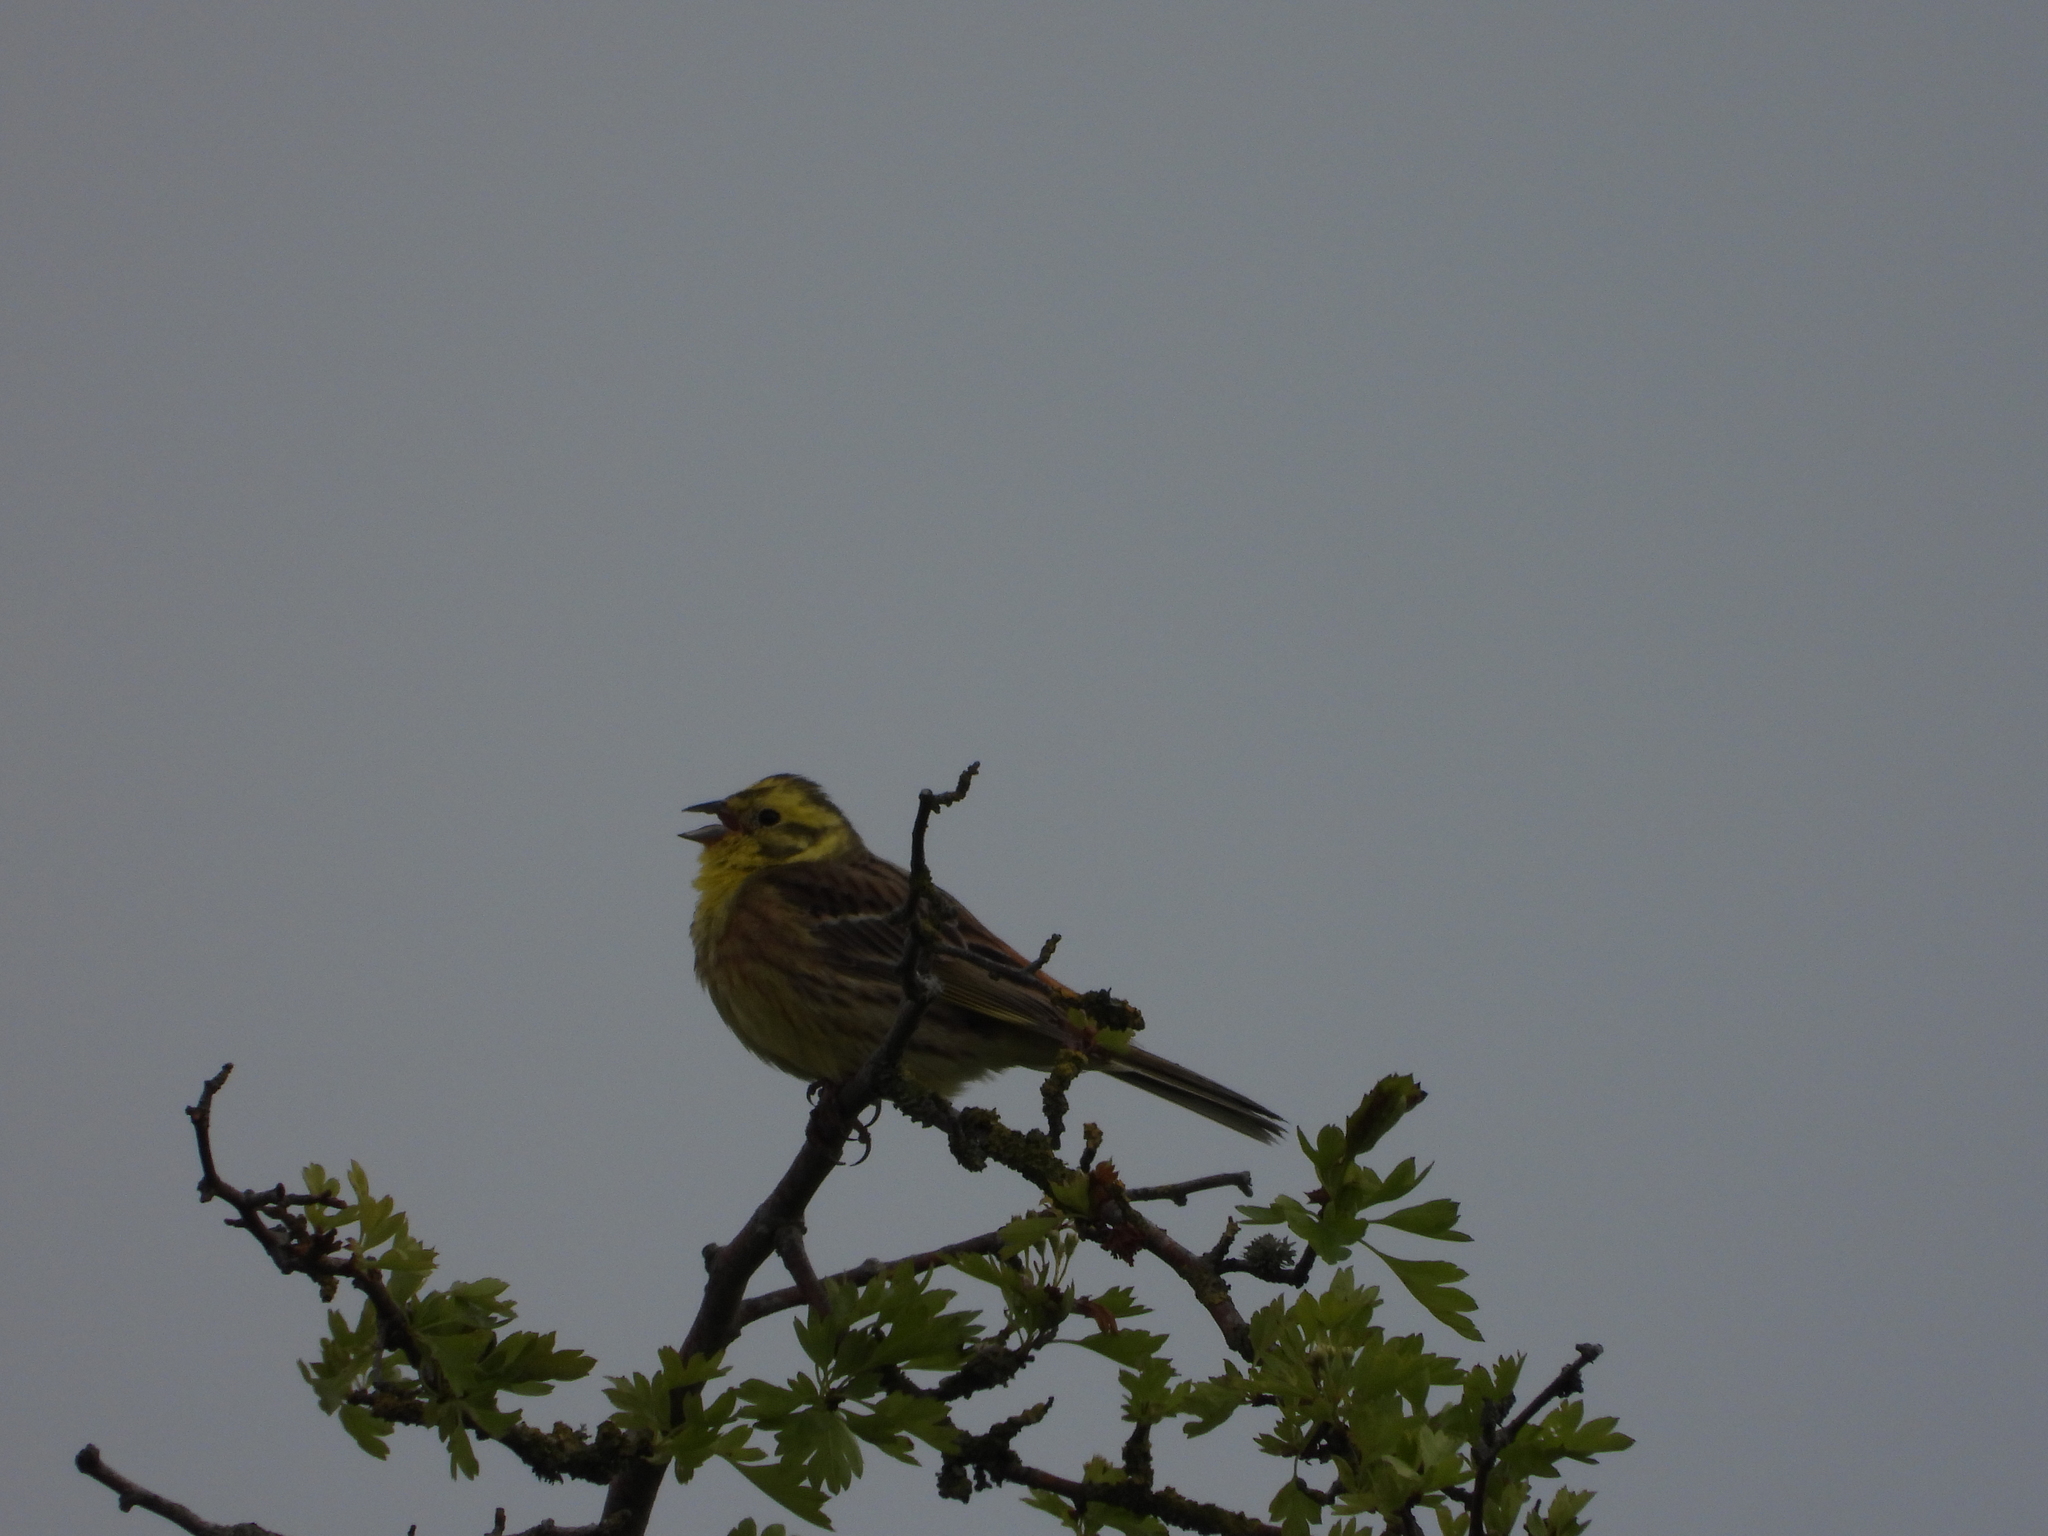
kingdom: Animalia
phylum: Chordata
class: Aves
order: Passeriformes
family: Emberizidae
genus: Emberiza
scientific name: Emberiza citrinella
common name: Yellowhammer
